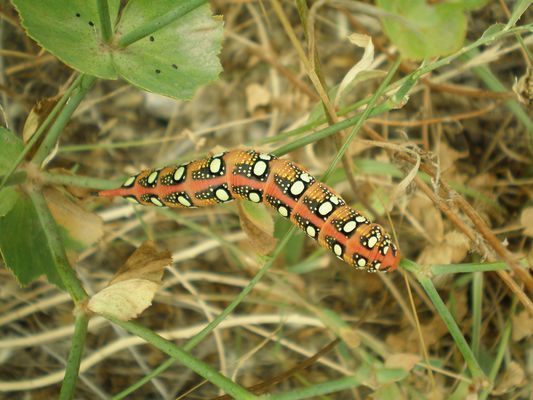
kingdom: Animalia
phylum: Arthropoda
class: Insecta
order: Lepidoptera
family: Sphingidae
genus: Hyles
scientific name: Hyles euphorbiae
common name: Spurge hawk-moth
